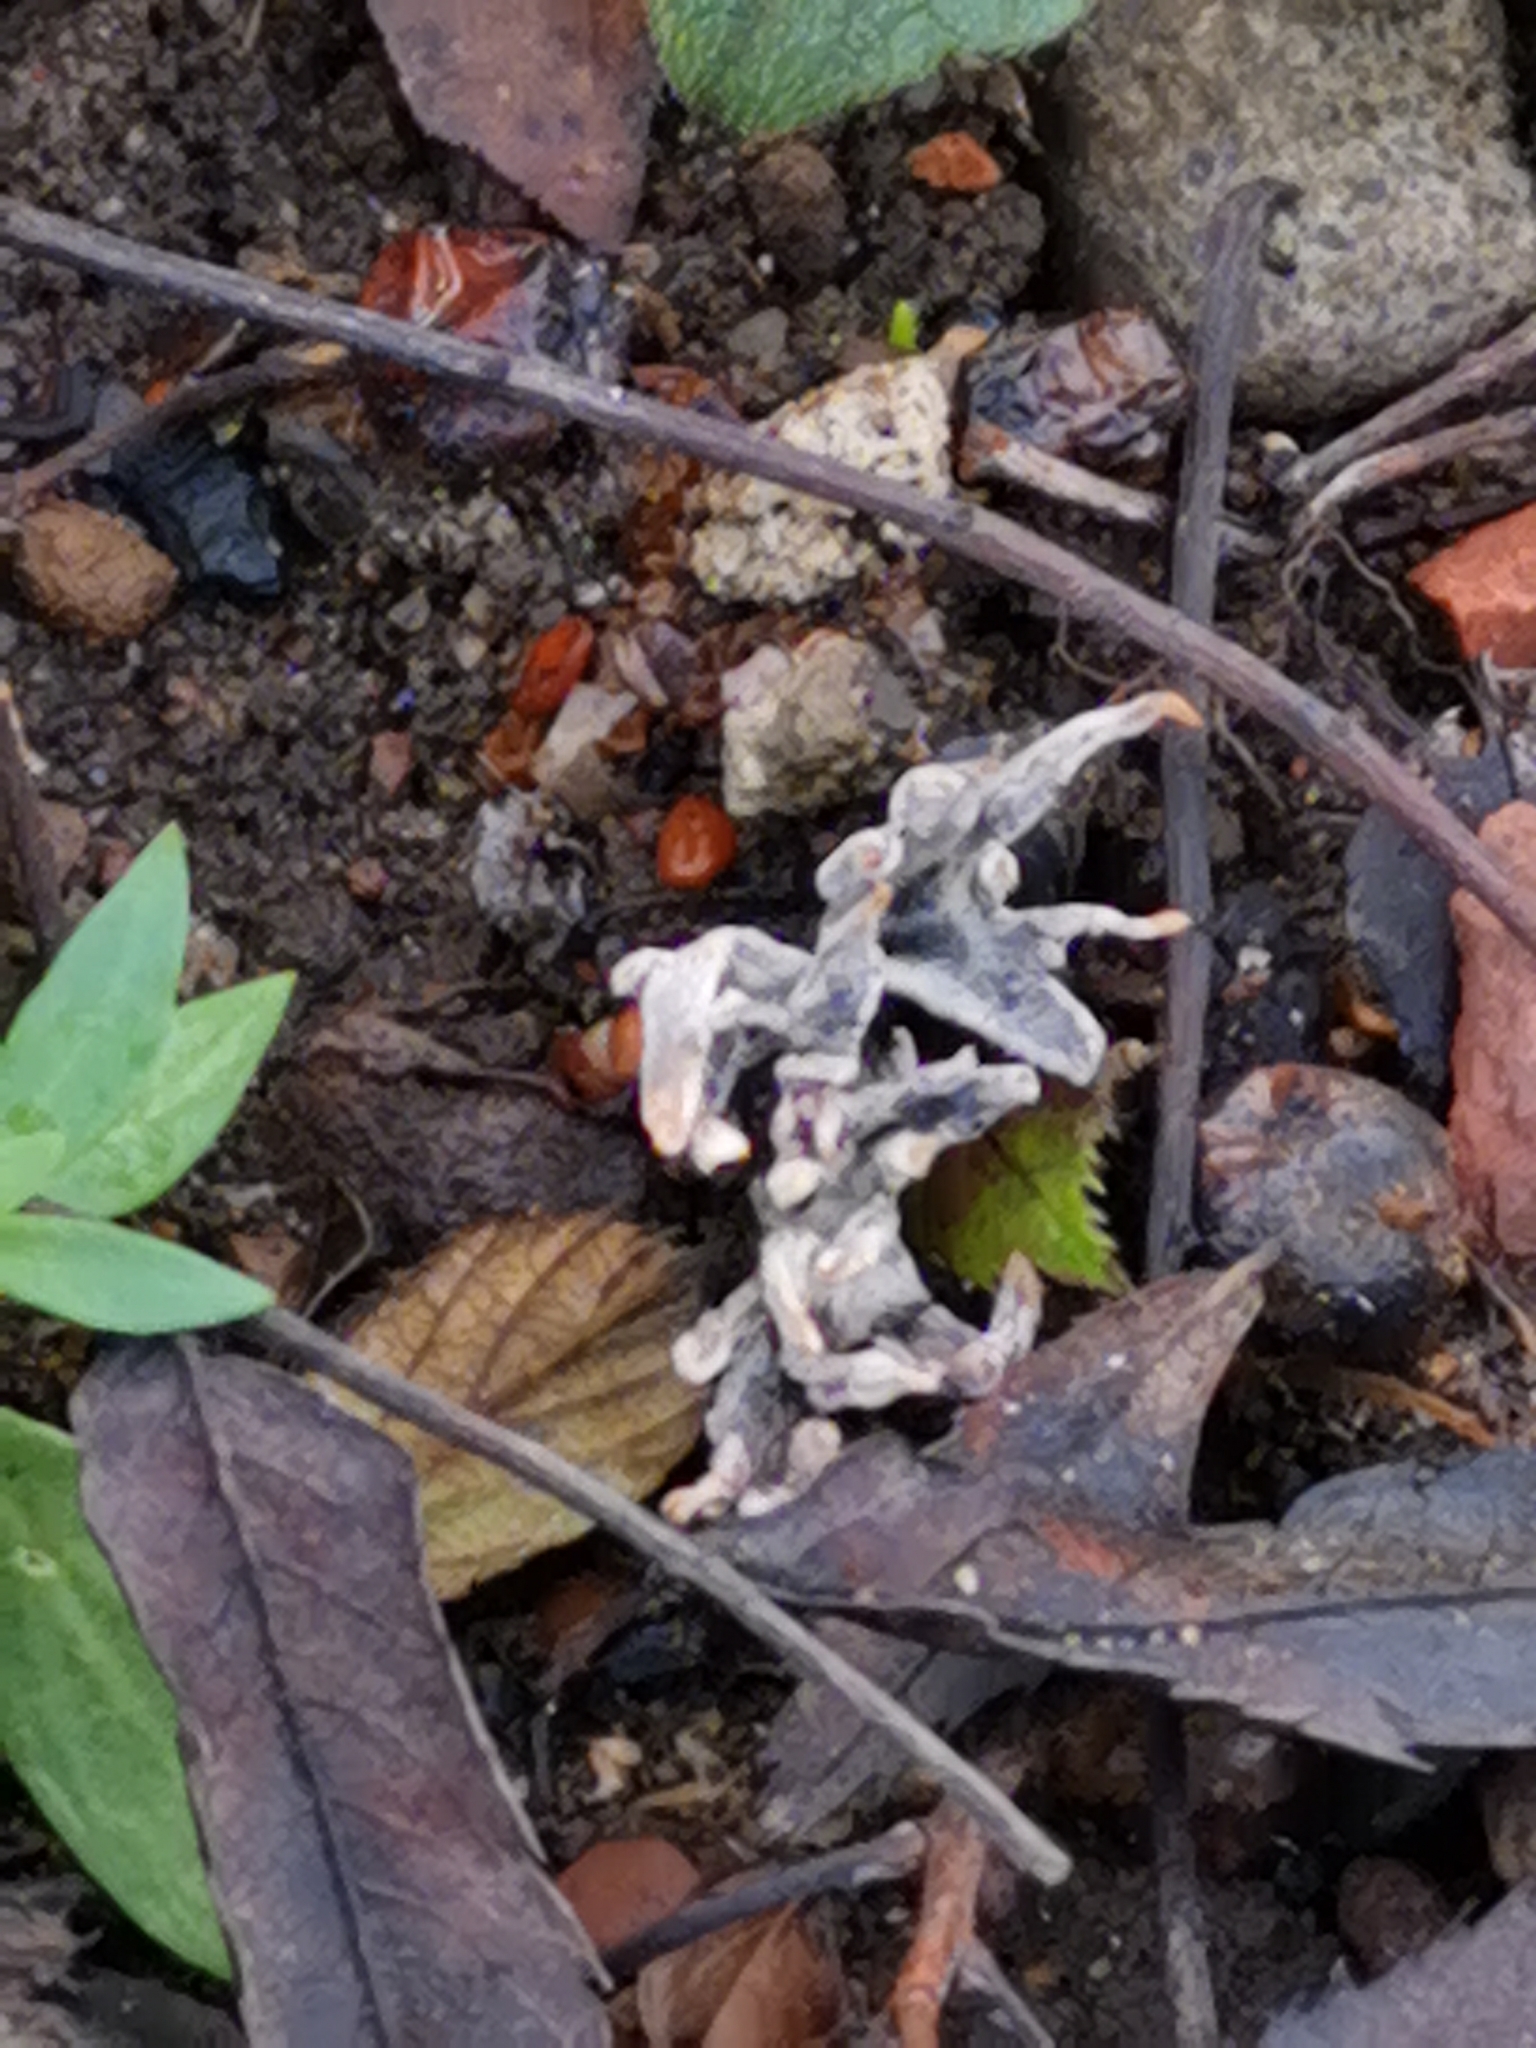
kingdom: Fungi
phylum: Ascomycota
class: Sordariomycetes
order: Xylariales
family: Xylariaceae
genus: Xylaria
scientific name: Xylaria hypoxylon
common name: Candle-snuff fungus
